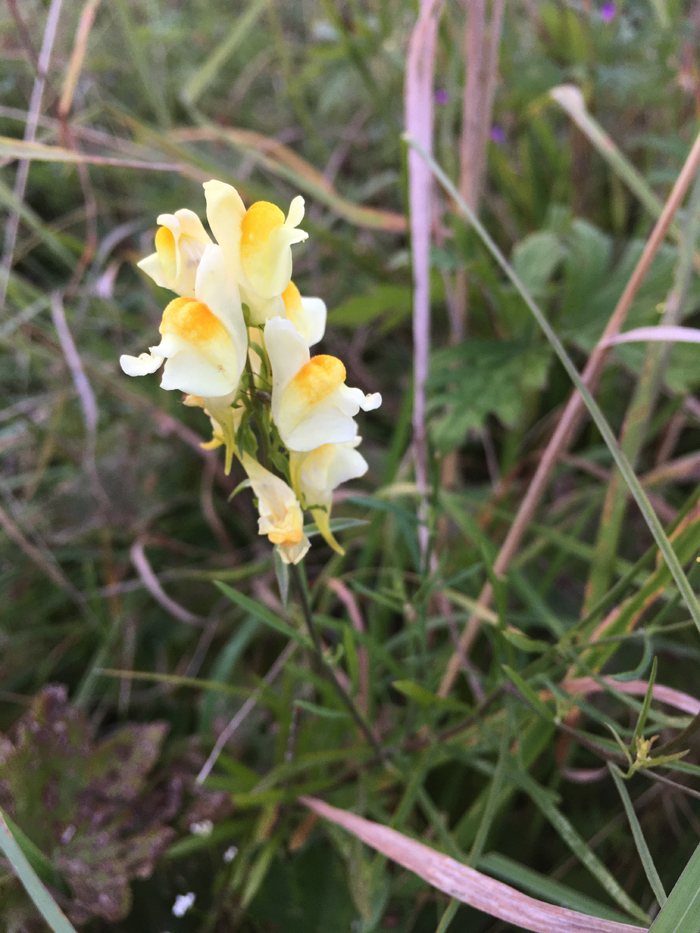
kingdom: Plantae
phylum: Tracheophyta
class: Magnoliopsida
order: Lamiales
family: Plantaginaceae
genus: Linaria
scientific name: Linaria vulgaris
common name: Butter and eggs
